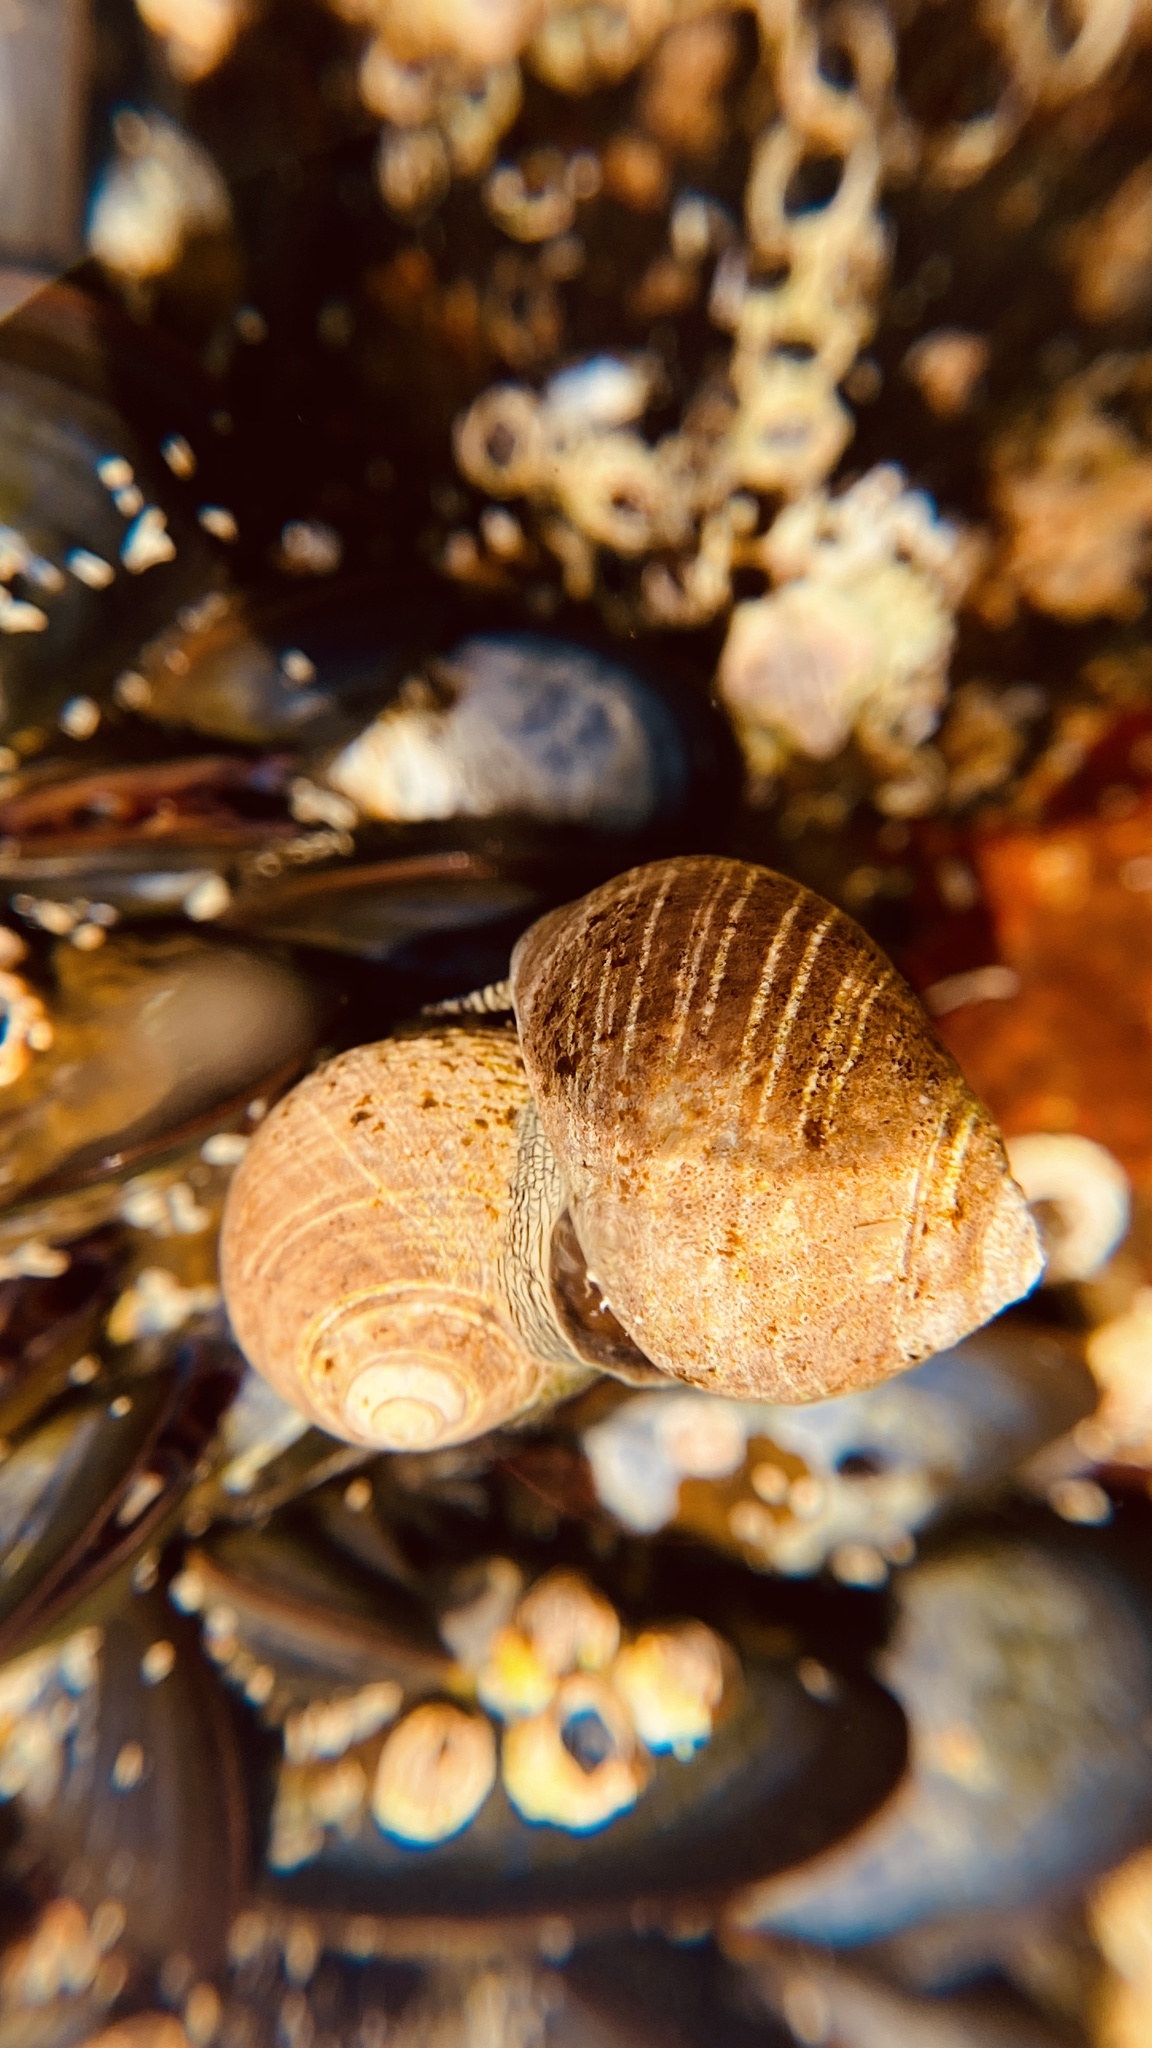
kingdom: Animalia
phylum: Mollusca
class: Gastropoda
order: Littorinimorpha
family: Littorinidae
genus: Littorina
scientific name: Littorina littorea
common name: Common periwinkle
